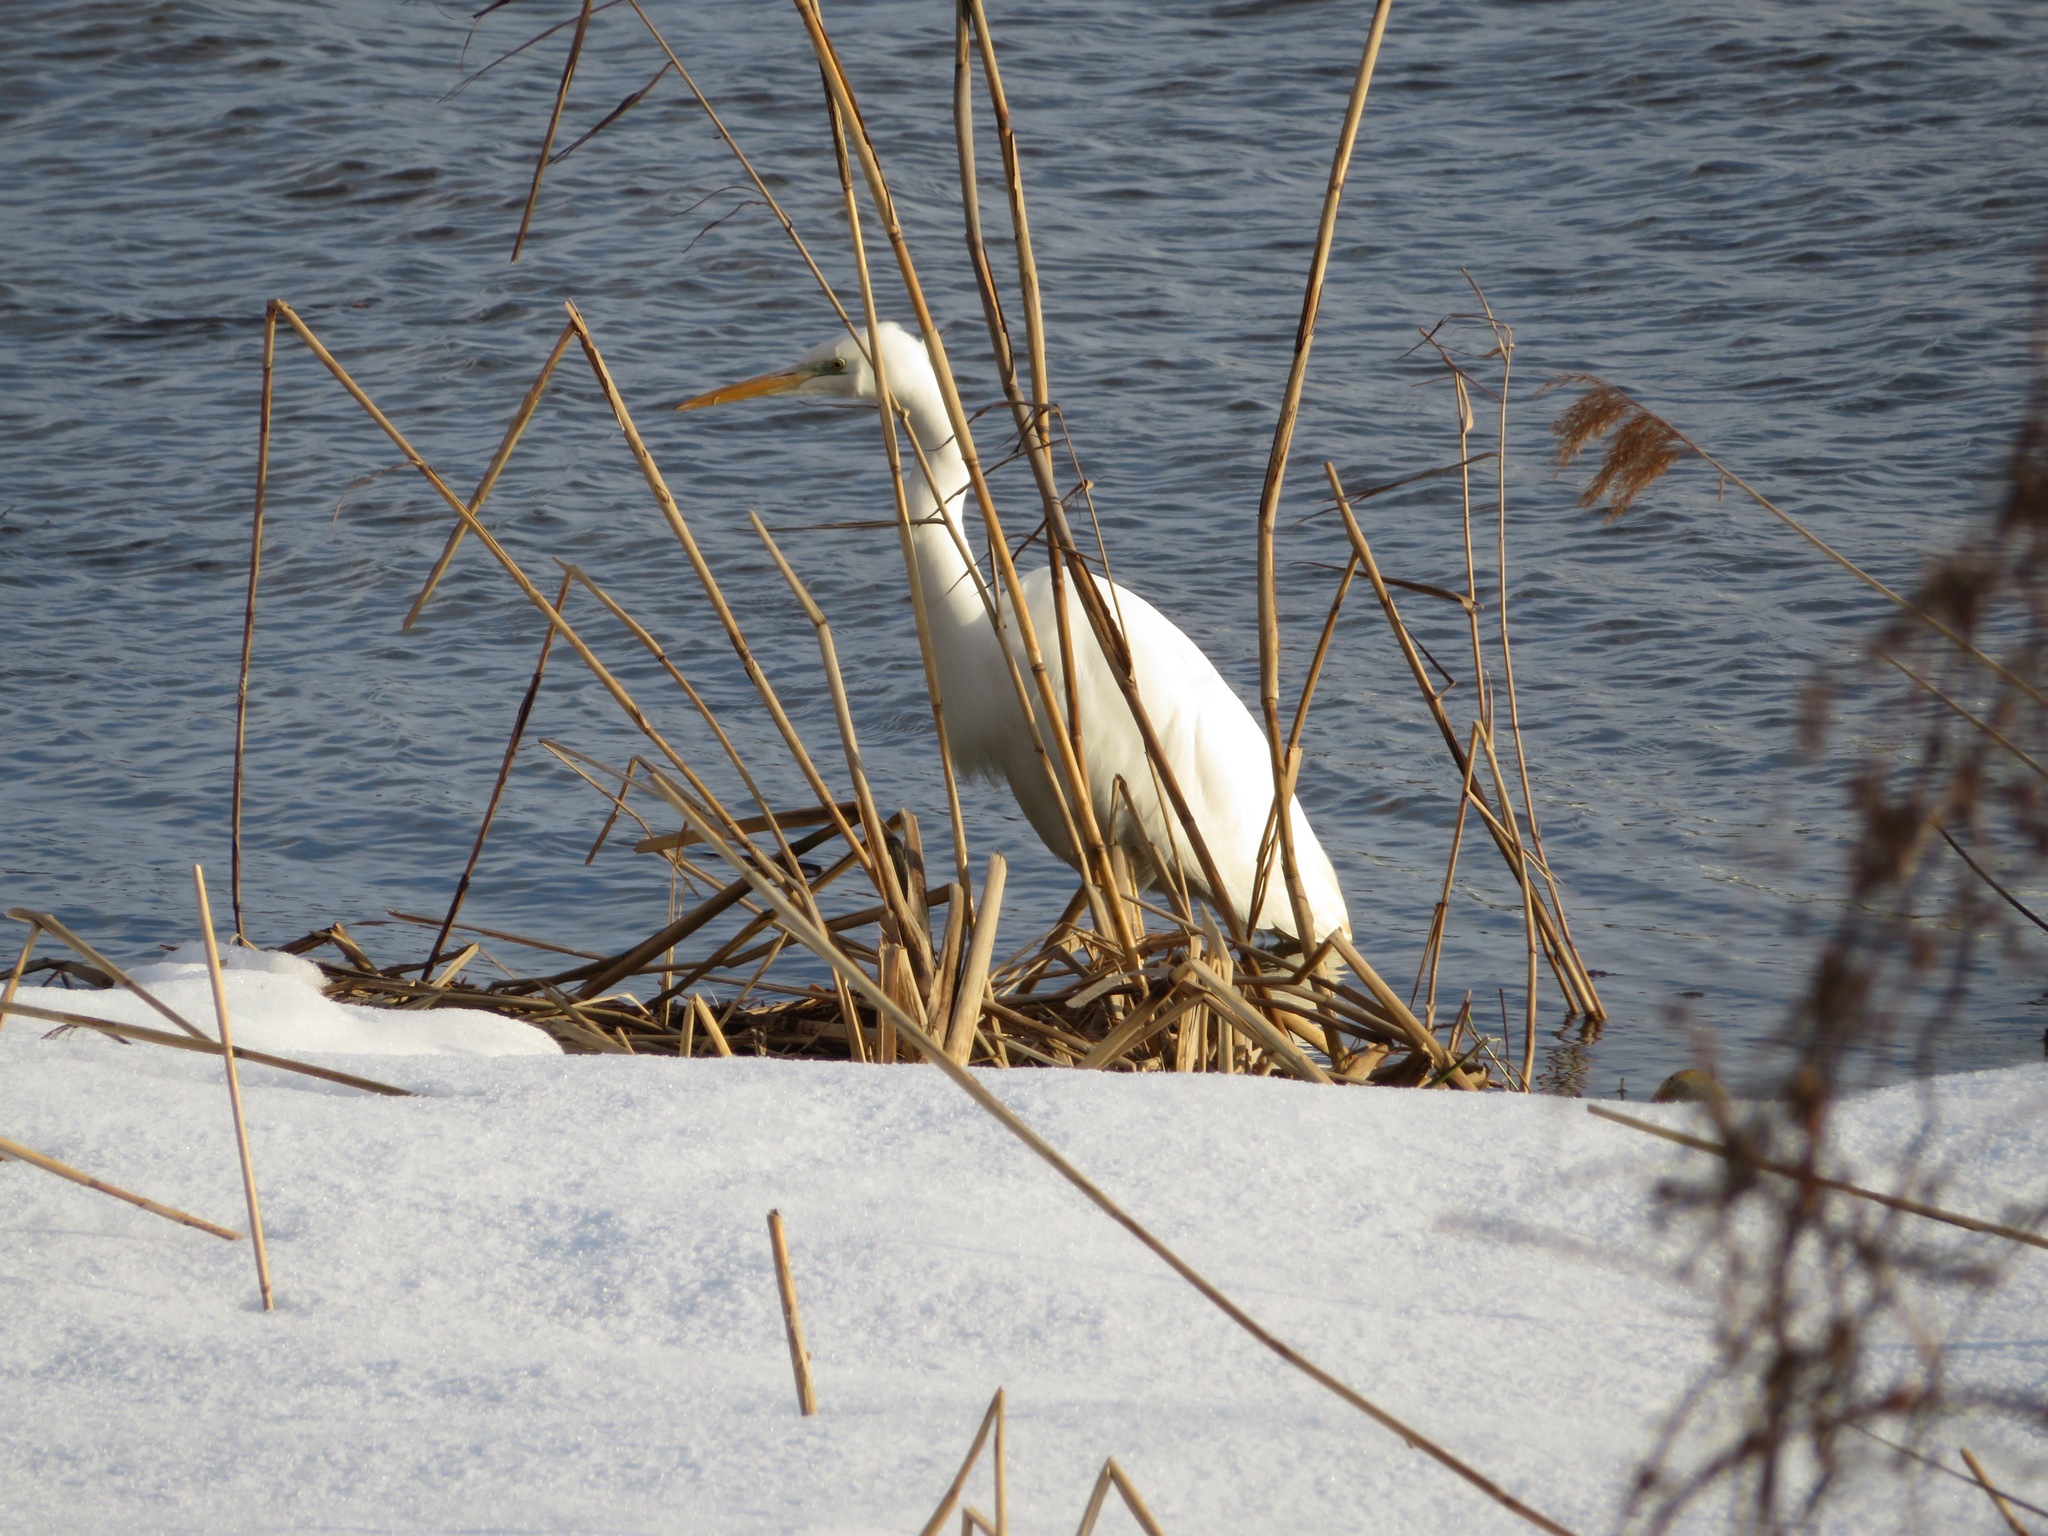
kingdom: Animalia
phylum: Chordata
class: Aves
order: Pelecaniformes
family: Ardeidae
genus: Ardea
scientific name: Ardea alba
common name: Great egret
